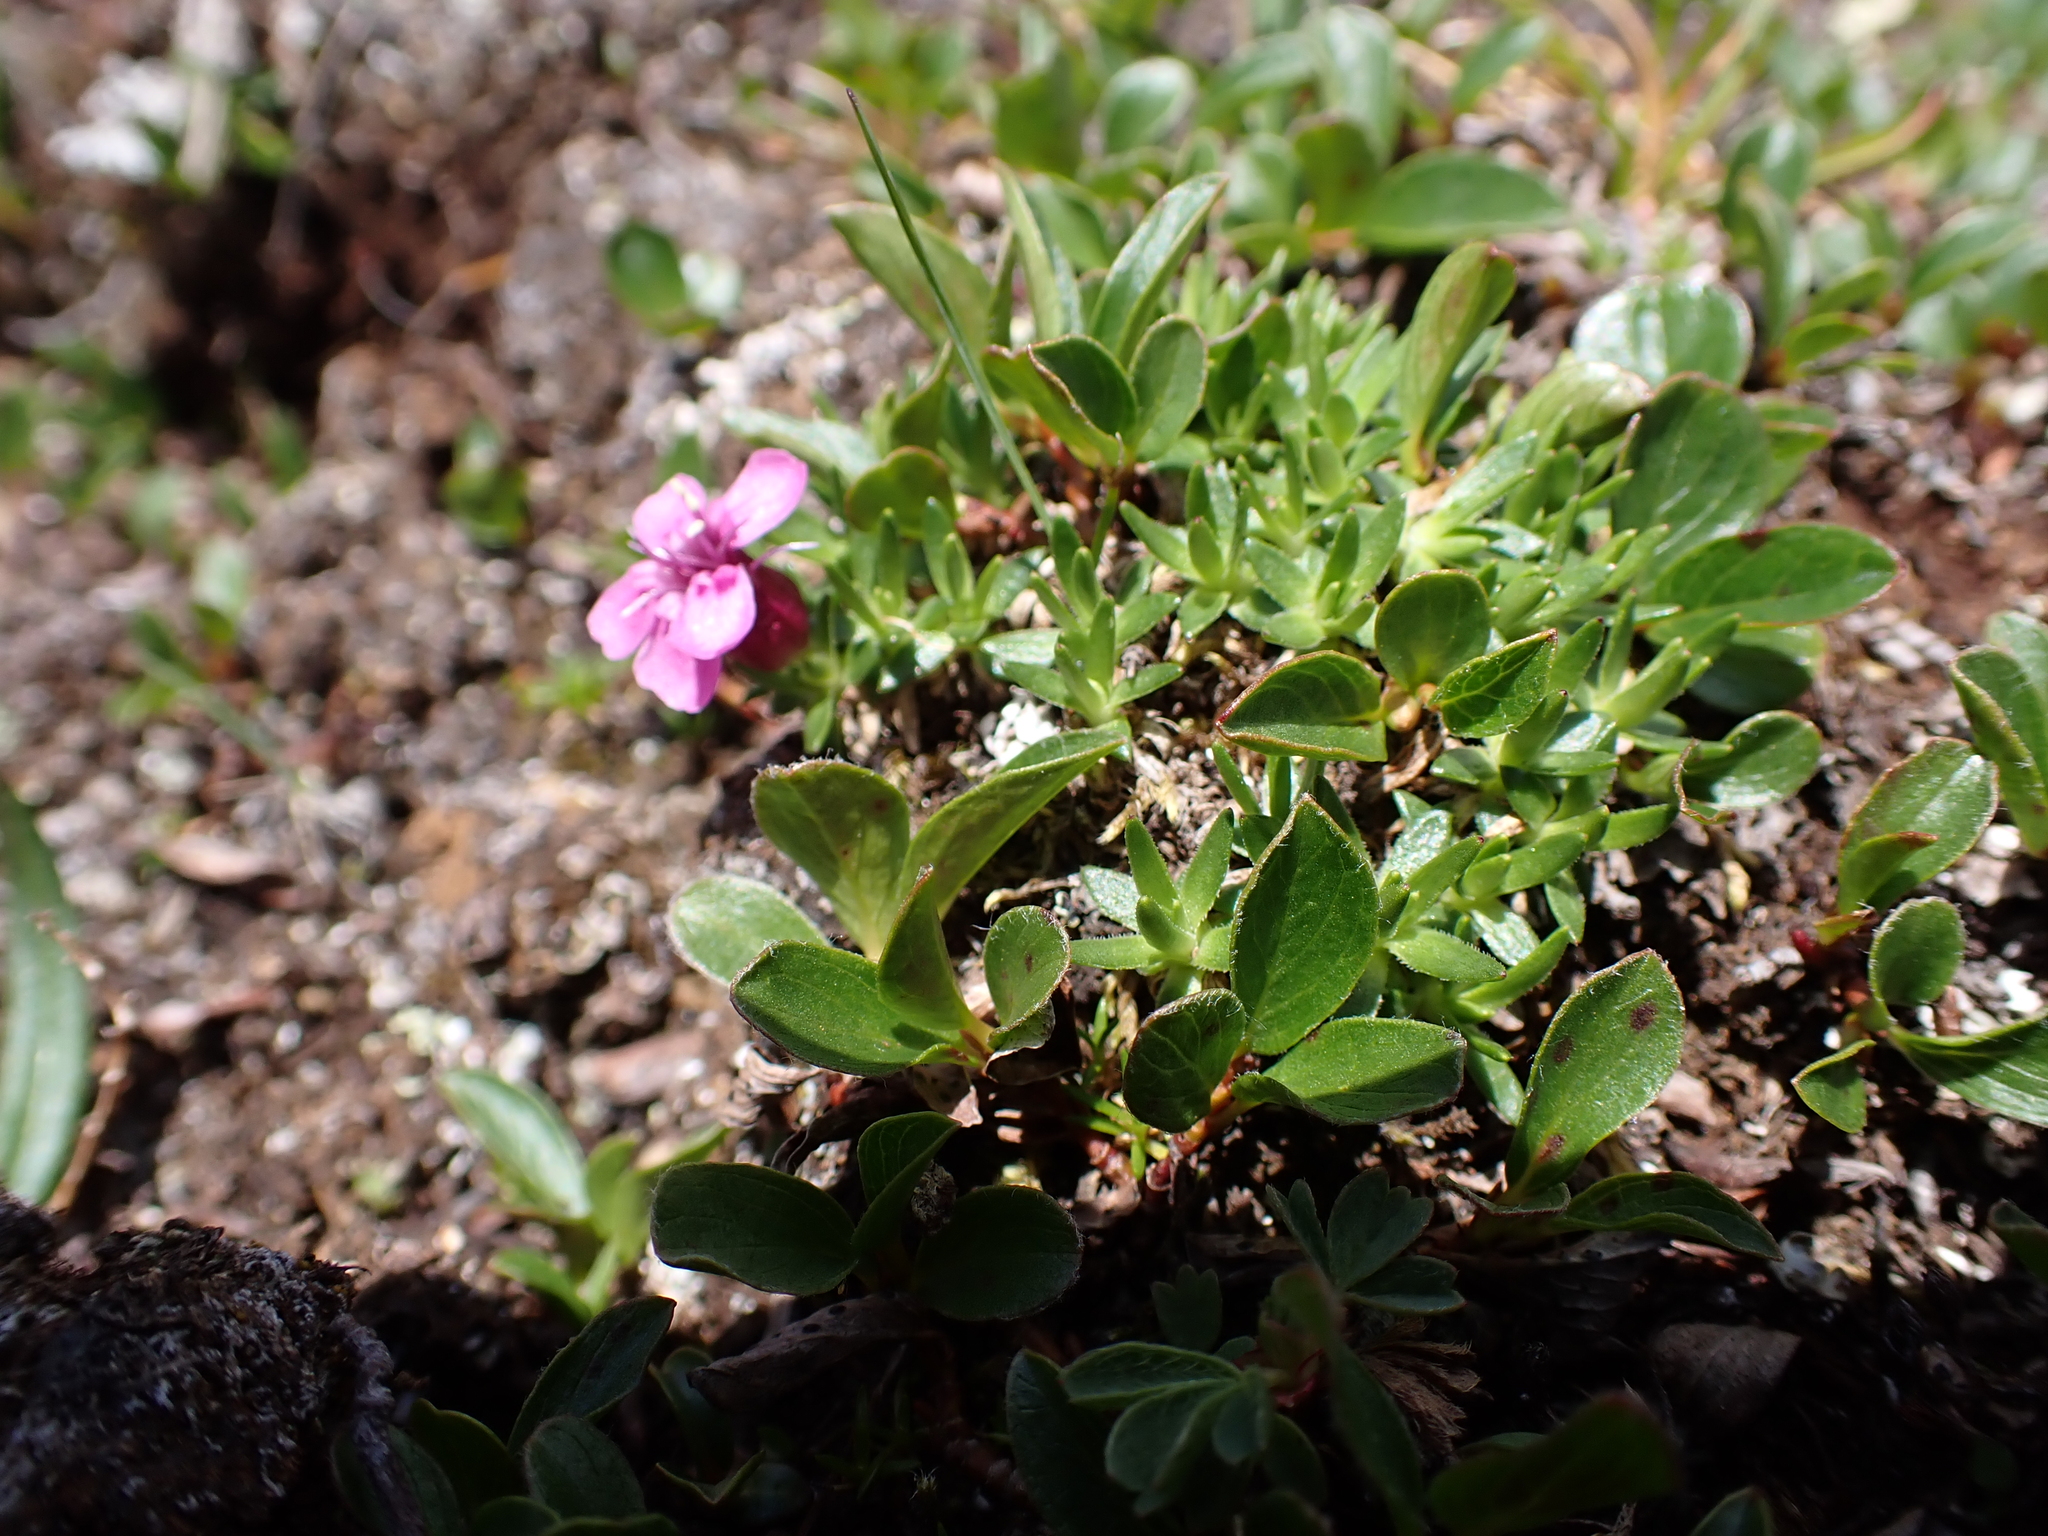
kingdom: Plantae
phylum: Tracheophyta
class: Magnoliopsida
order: Caryophyllales
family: Caryophyllaceae
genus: Silene
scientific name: Silene acaulis
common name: Moss campion
